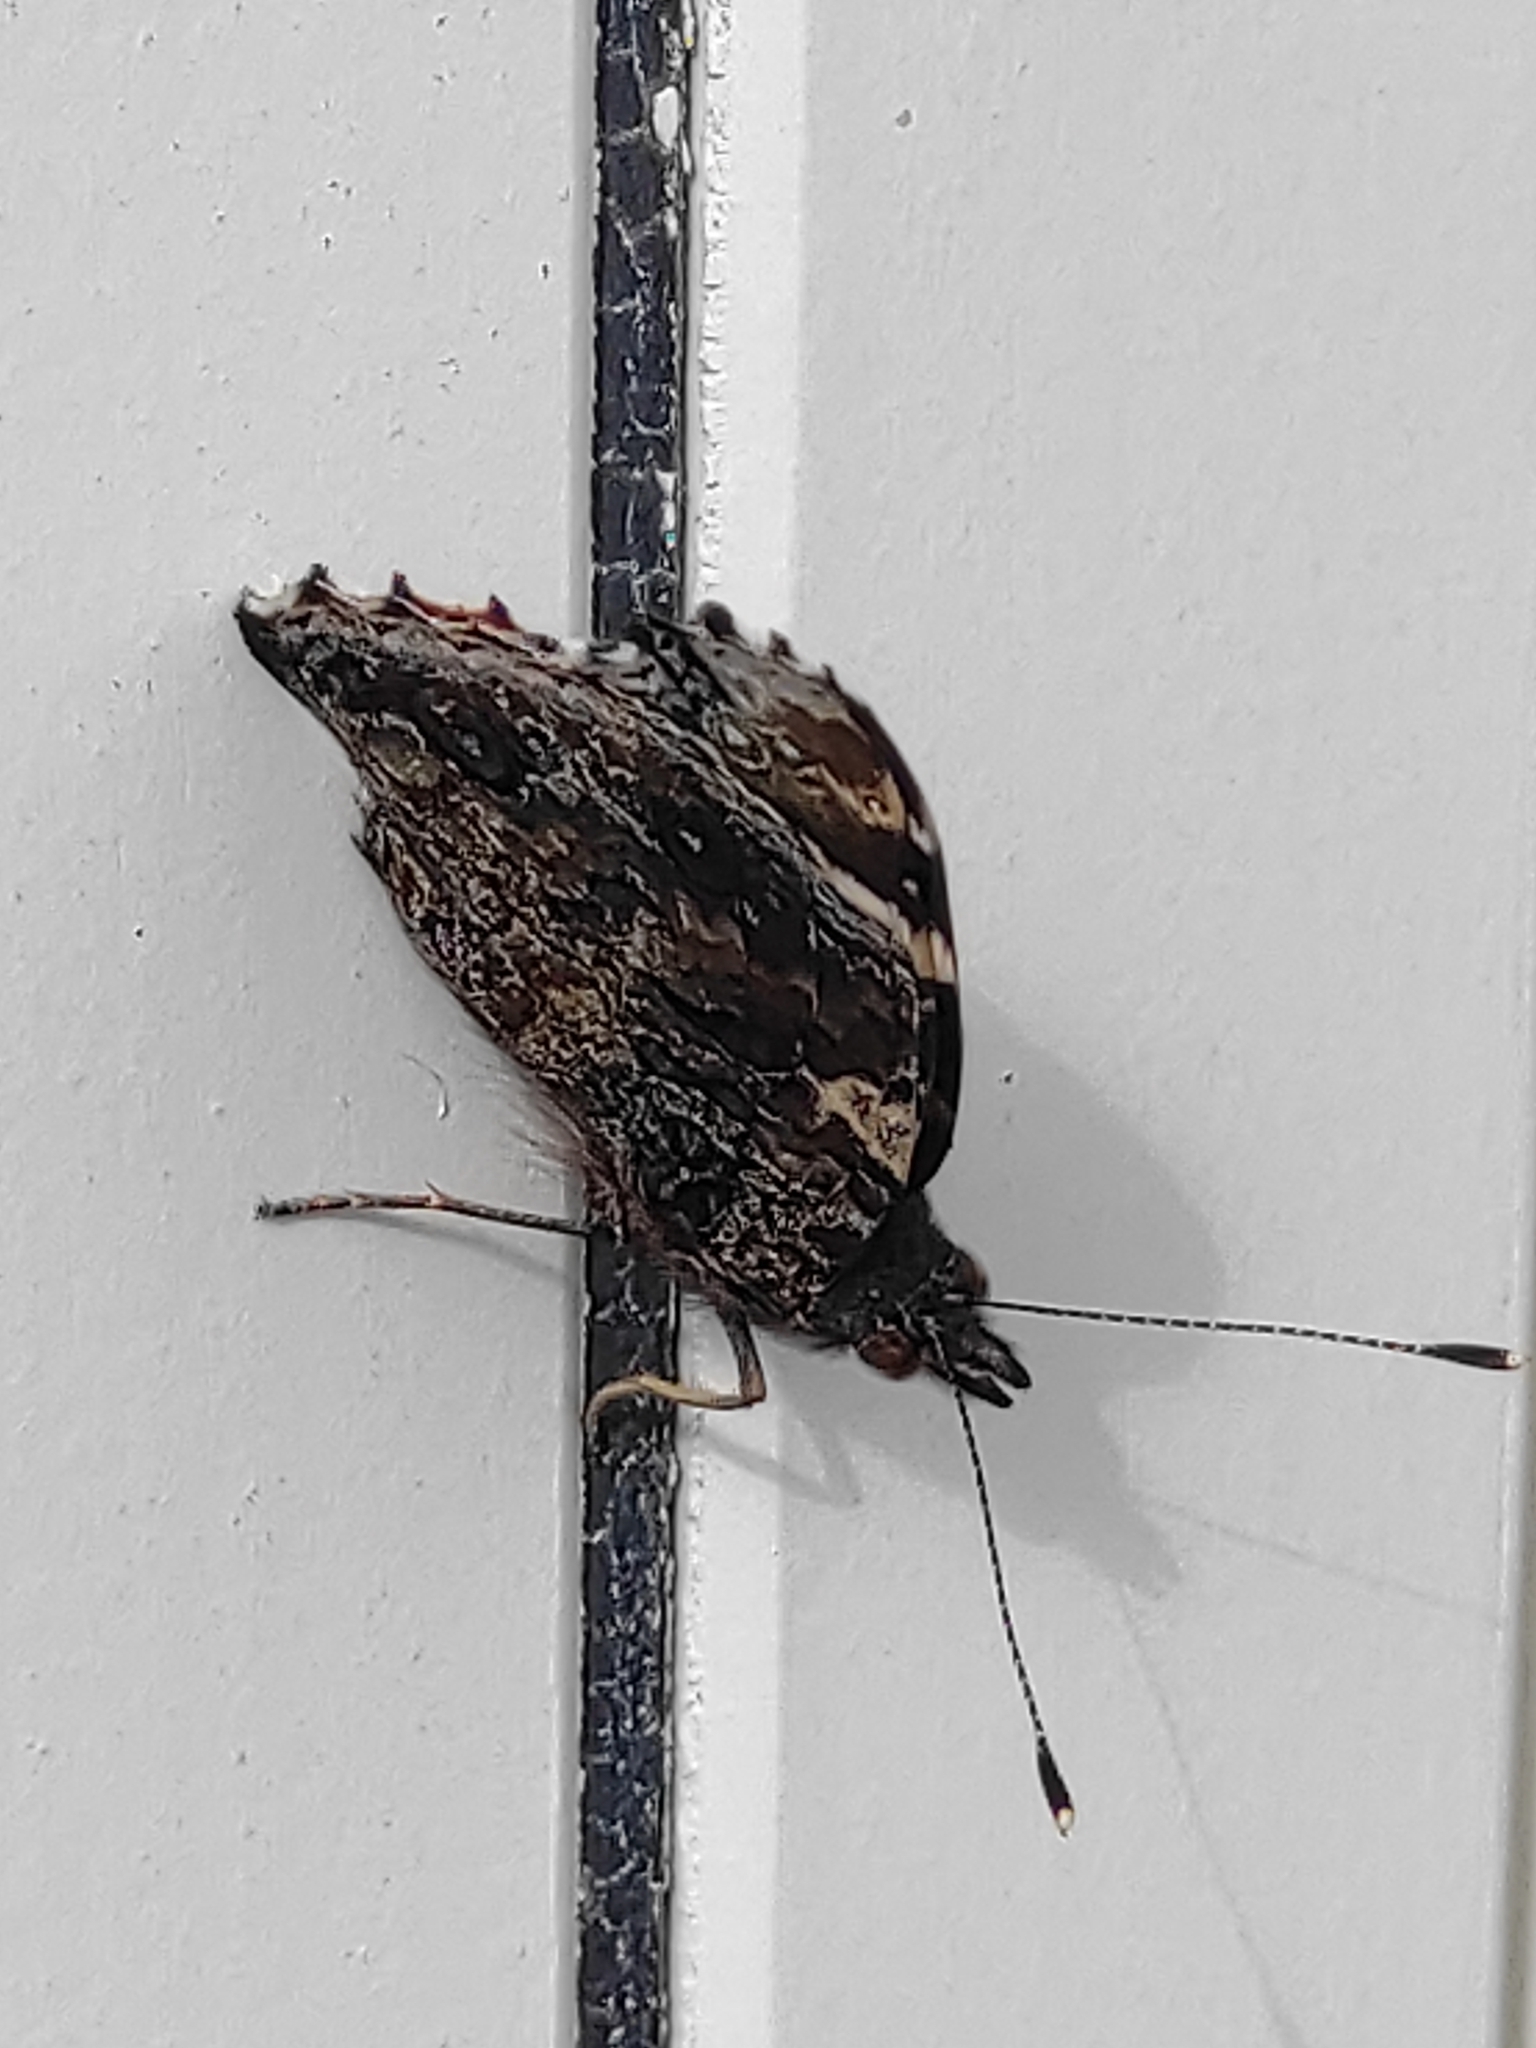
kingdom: Animalia
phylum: Arthropoda
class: Insecta
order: Lepidoptera
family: Nymphalidae
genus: Vanessa
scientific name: Vanessa atalanta
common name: Red admiral
